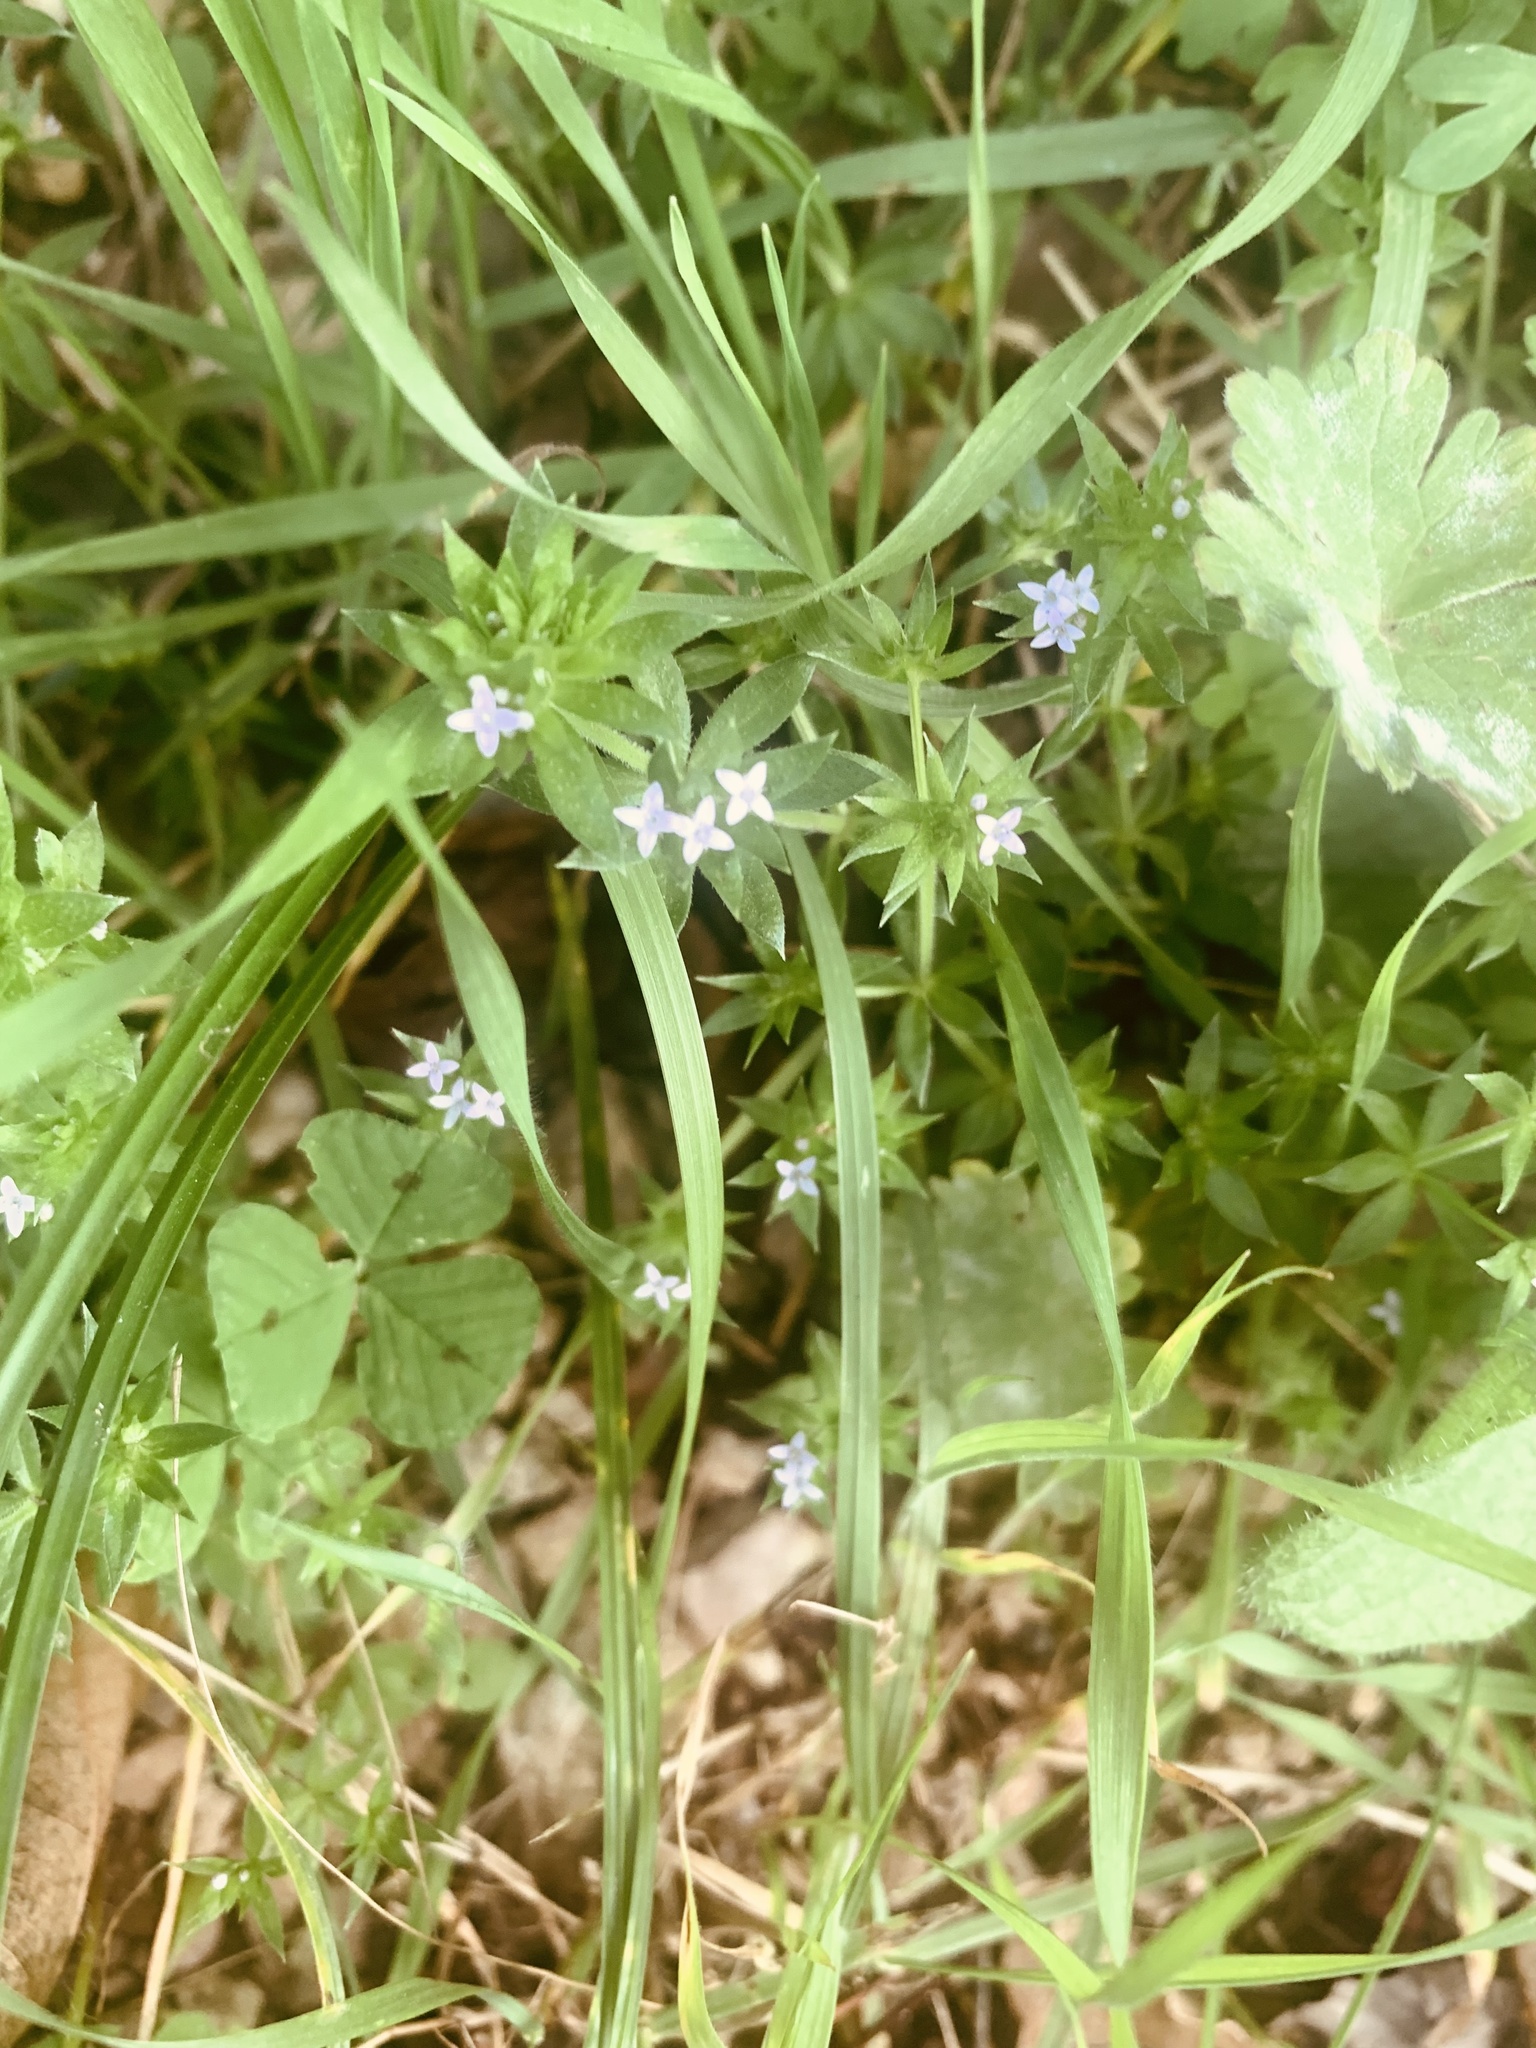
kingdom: Plantae
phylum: Tracheophyta
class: Magnoliopsida
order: Gentianales
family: Rubiaceae
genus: Sherardia
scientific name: Sherardia arvensis
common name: Field madder
